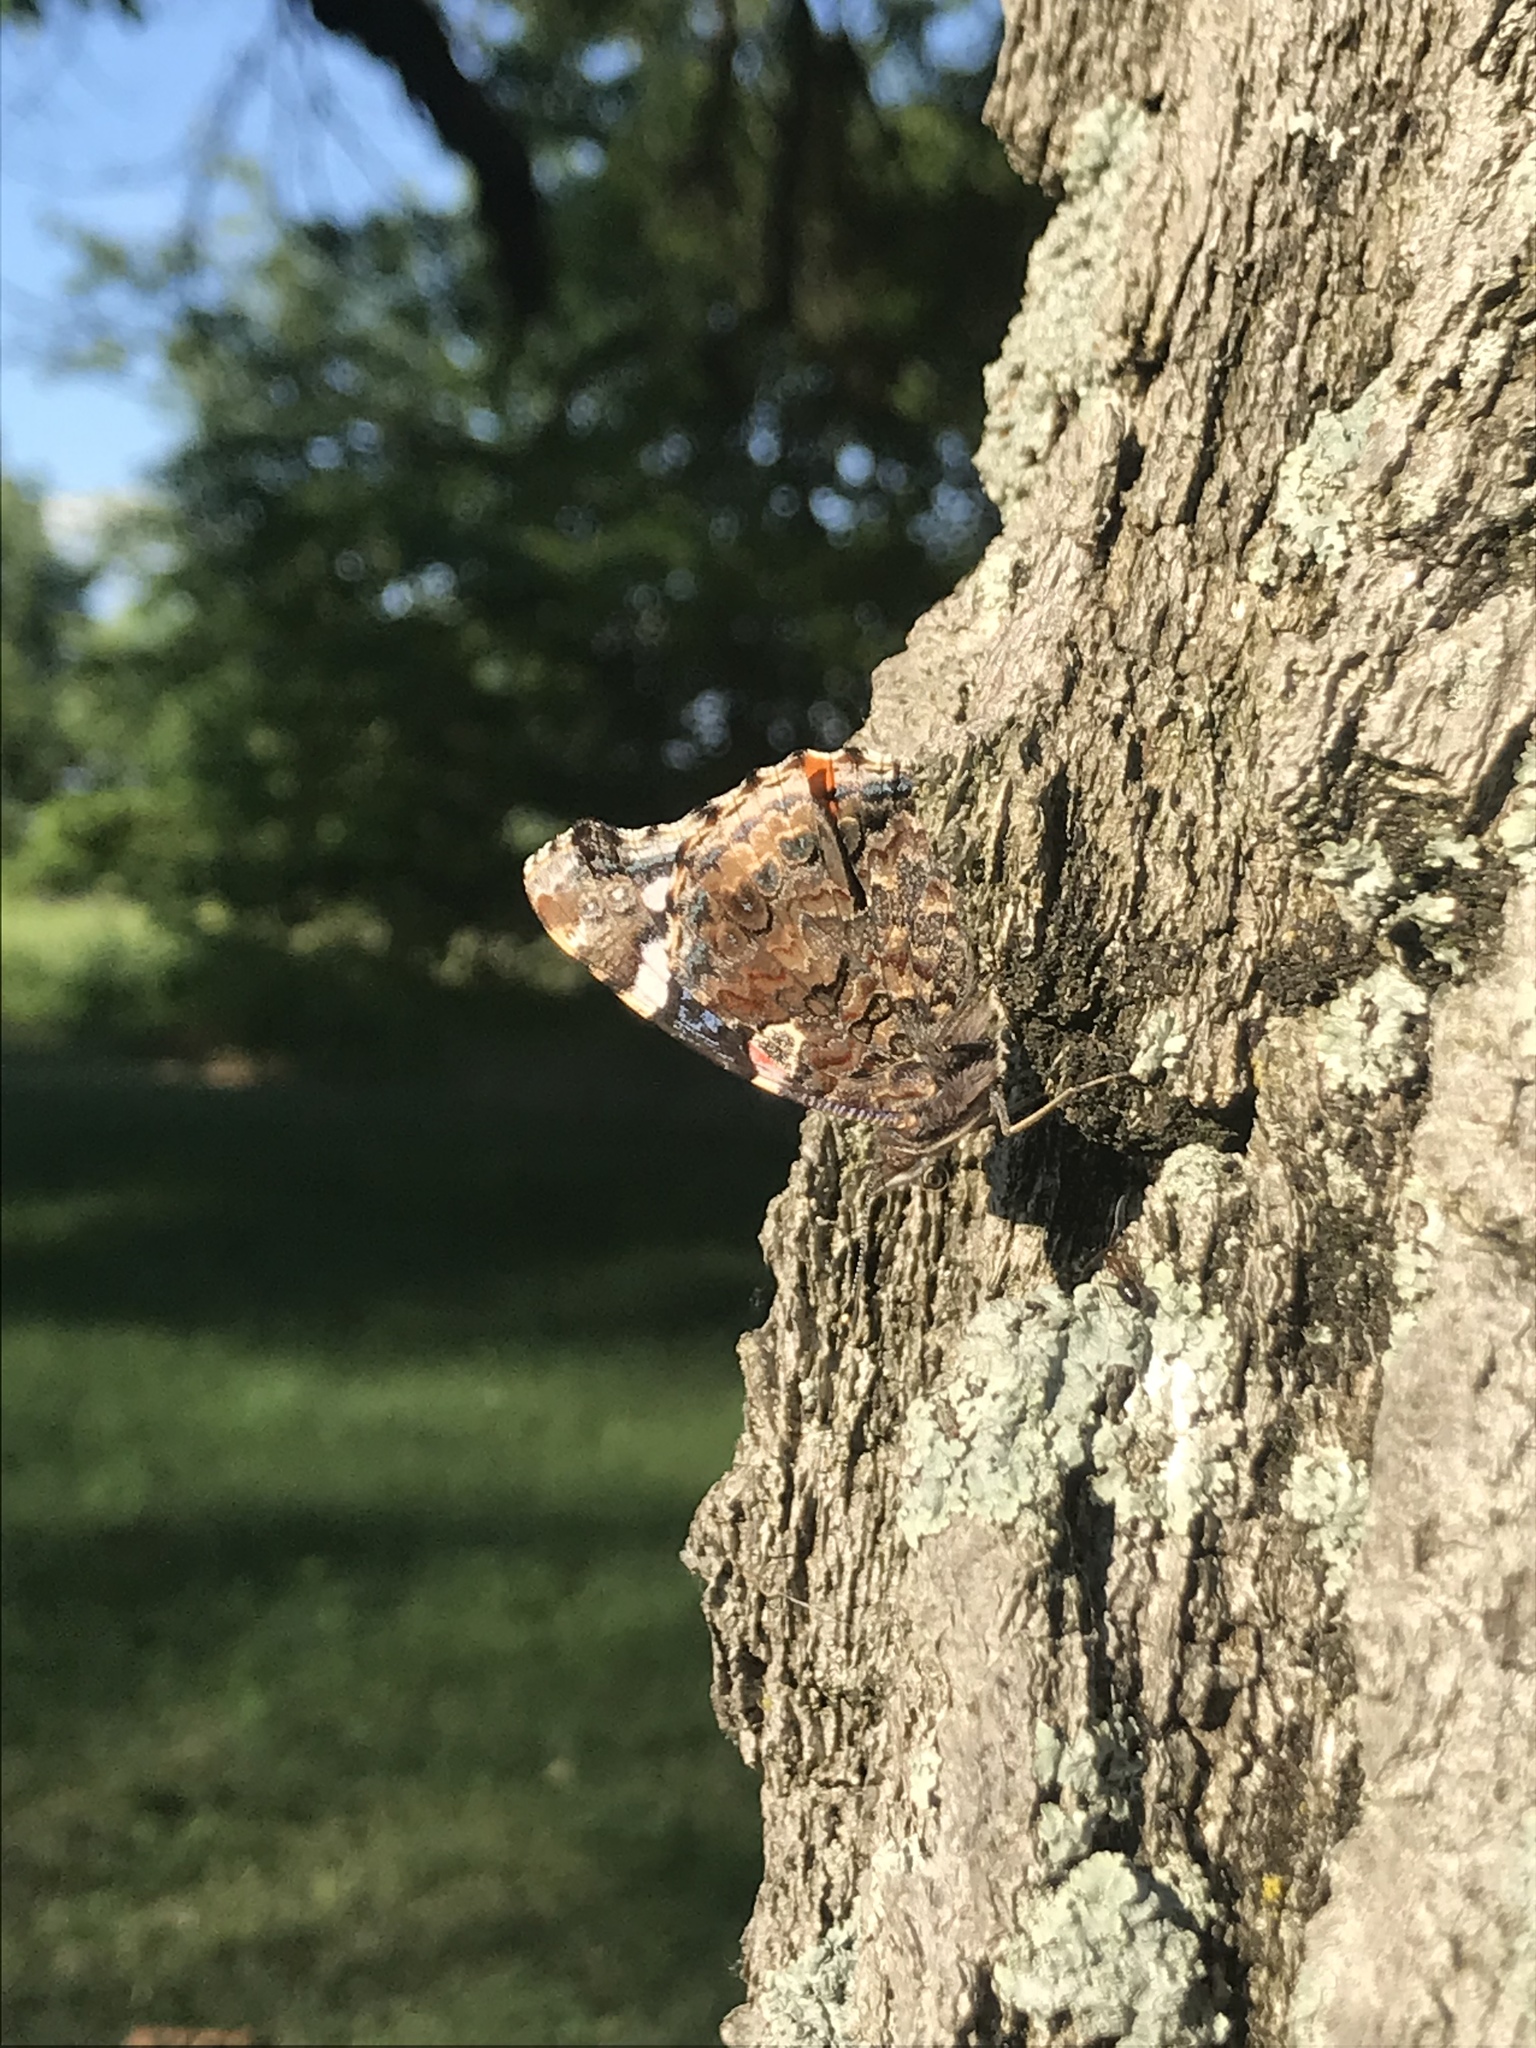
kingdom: Animalia
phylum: Arthropoda
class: Insecta
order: Lepidoptera
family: Nymphalidae
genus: Vanessa
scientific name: Vanessa atalanta
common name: Red admiral
